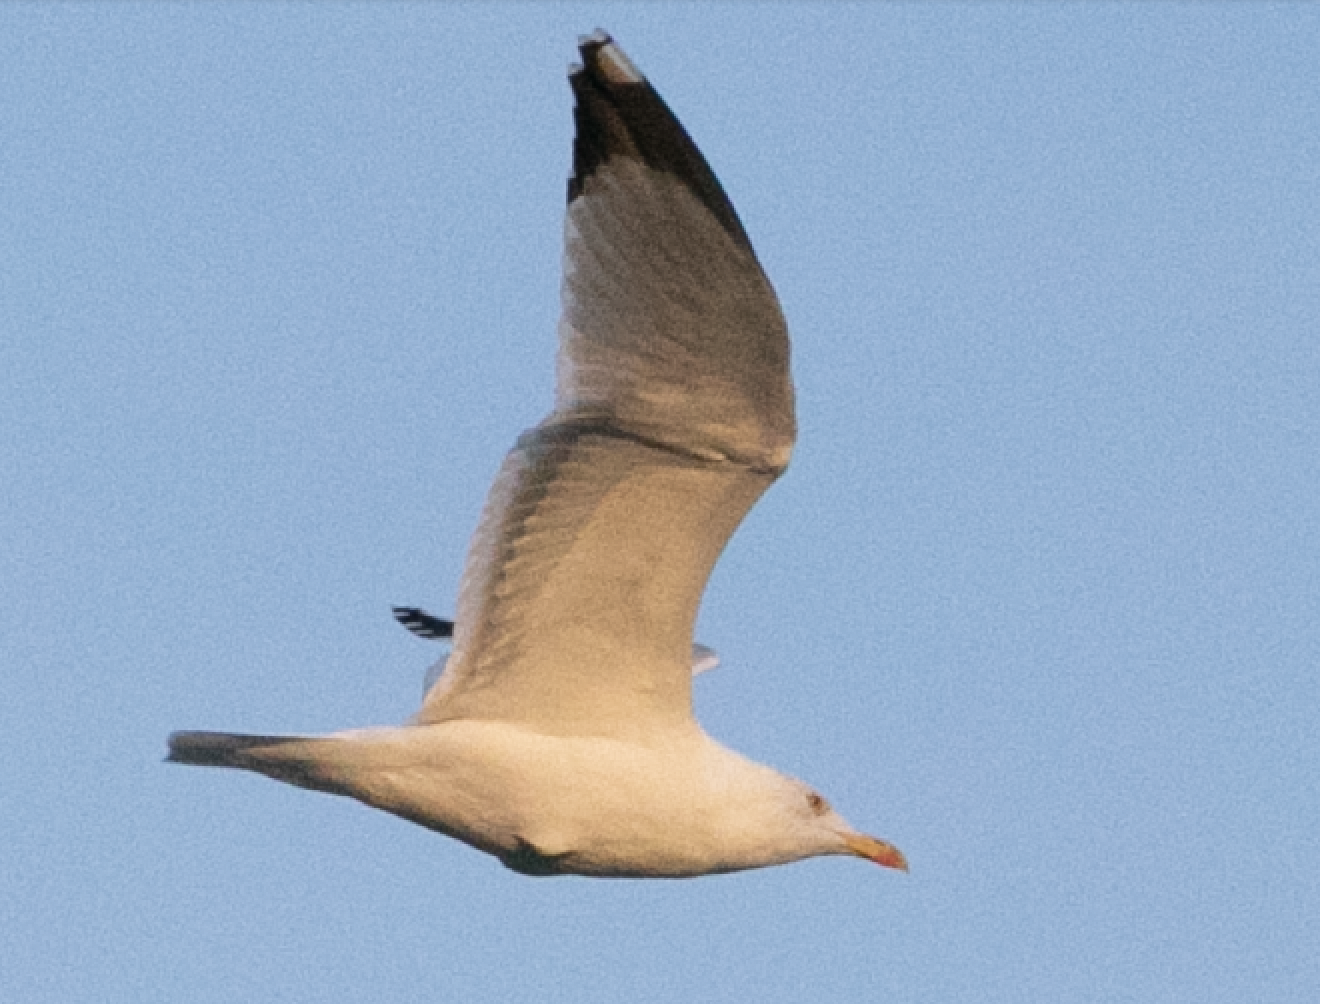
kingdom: Animalia
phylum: Chordata
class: Aves
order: Charadriiformes
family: Laridae
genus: Larus
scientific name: Larus michahellis
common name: Yellow-legged gull
